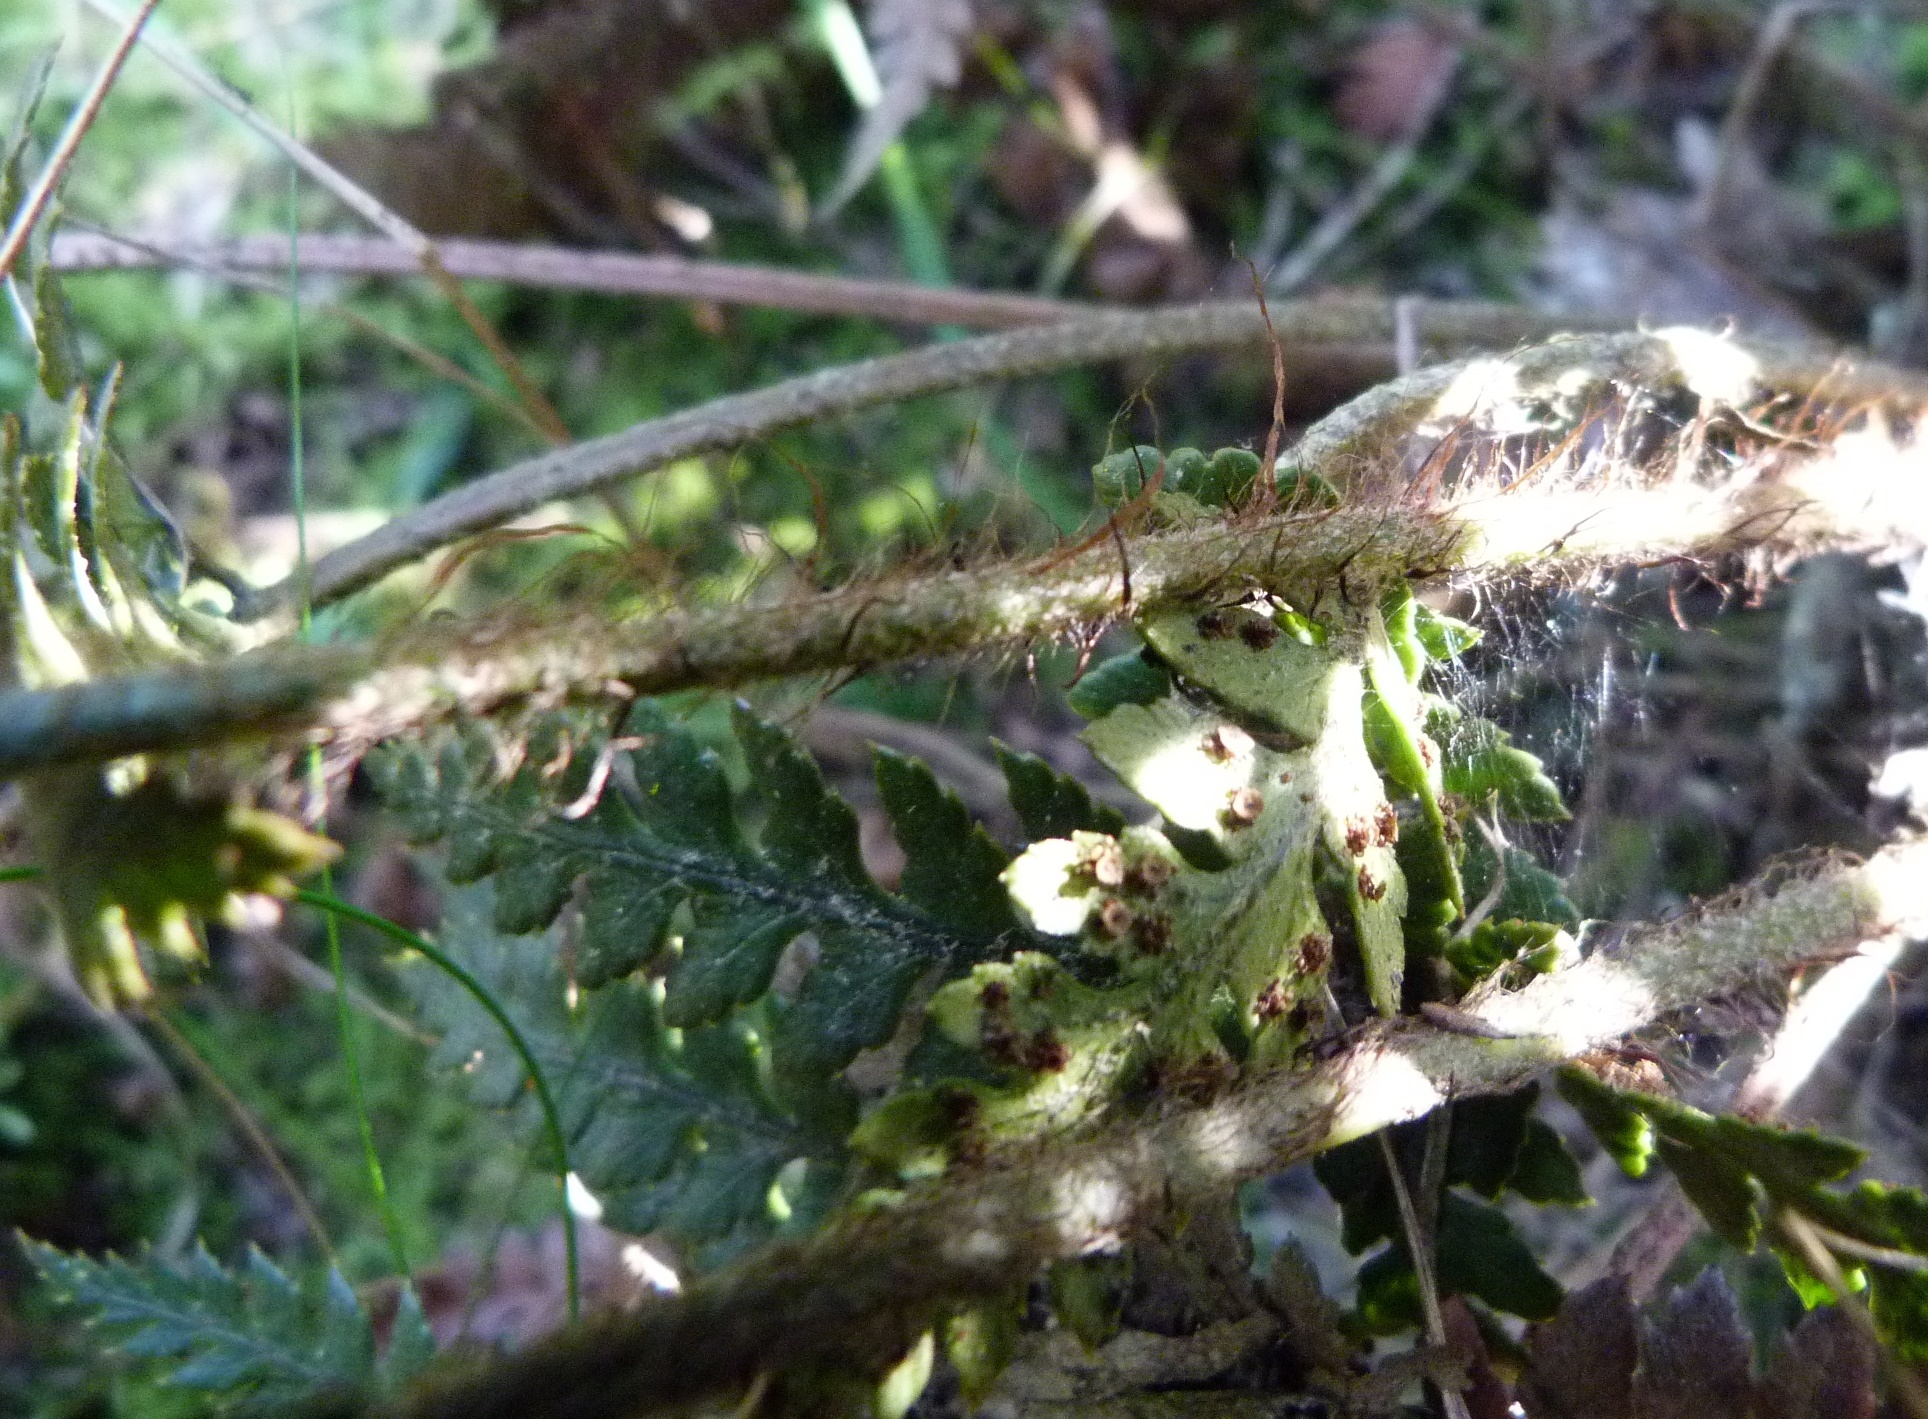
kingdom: Plantae
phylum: Tracheophyta
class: Polypodiopsida
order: Polypodiales
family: Dryopteridaceae
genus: Polystichum
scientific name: Polystichum neozelandicum
